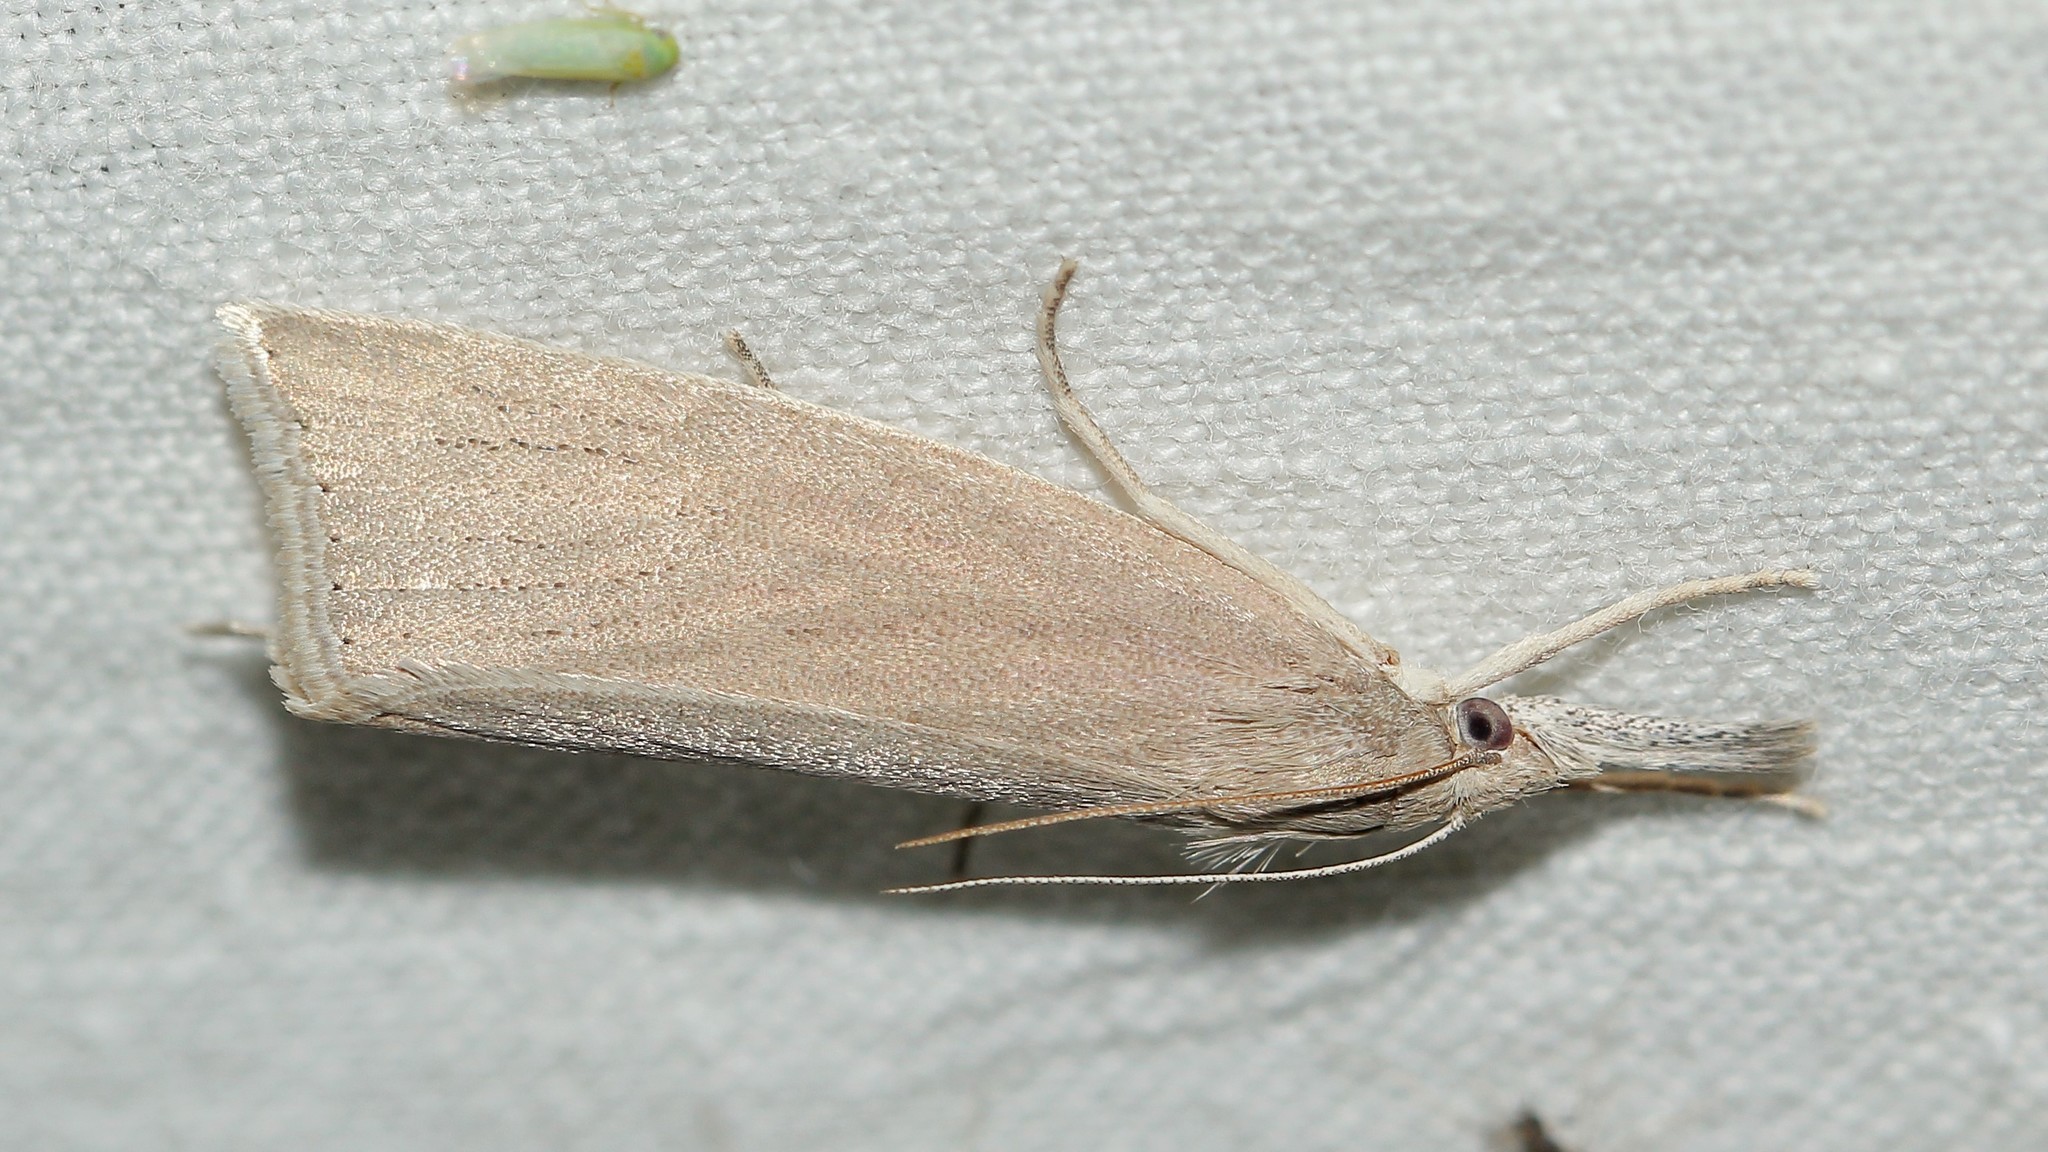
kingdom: Animalia
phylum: Arthropoda
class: Insecta
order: Lepidoptera
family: Crambidae
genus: Chilo
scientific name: Chilo luteellus
